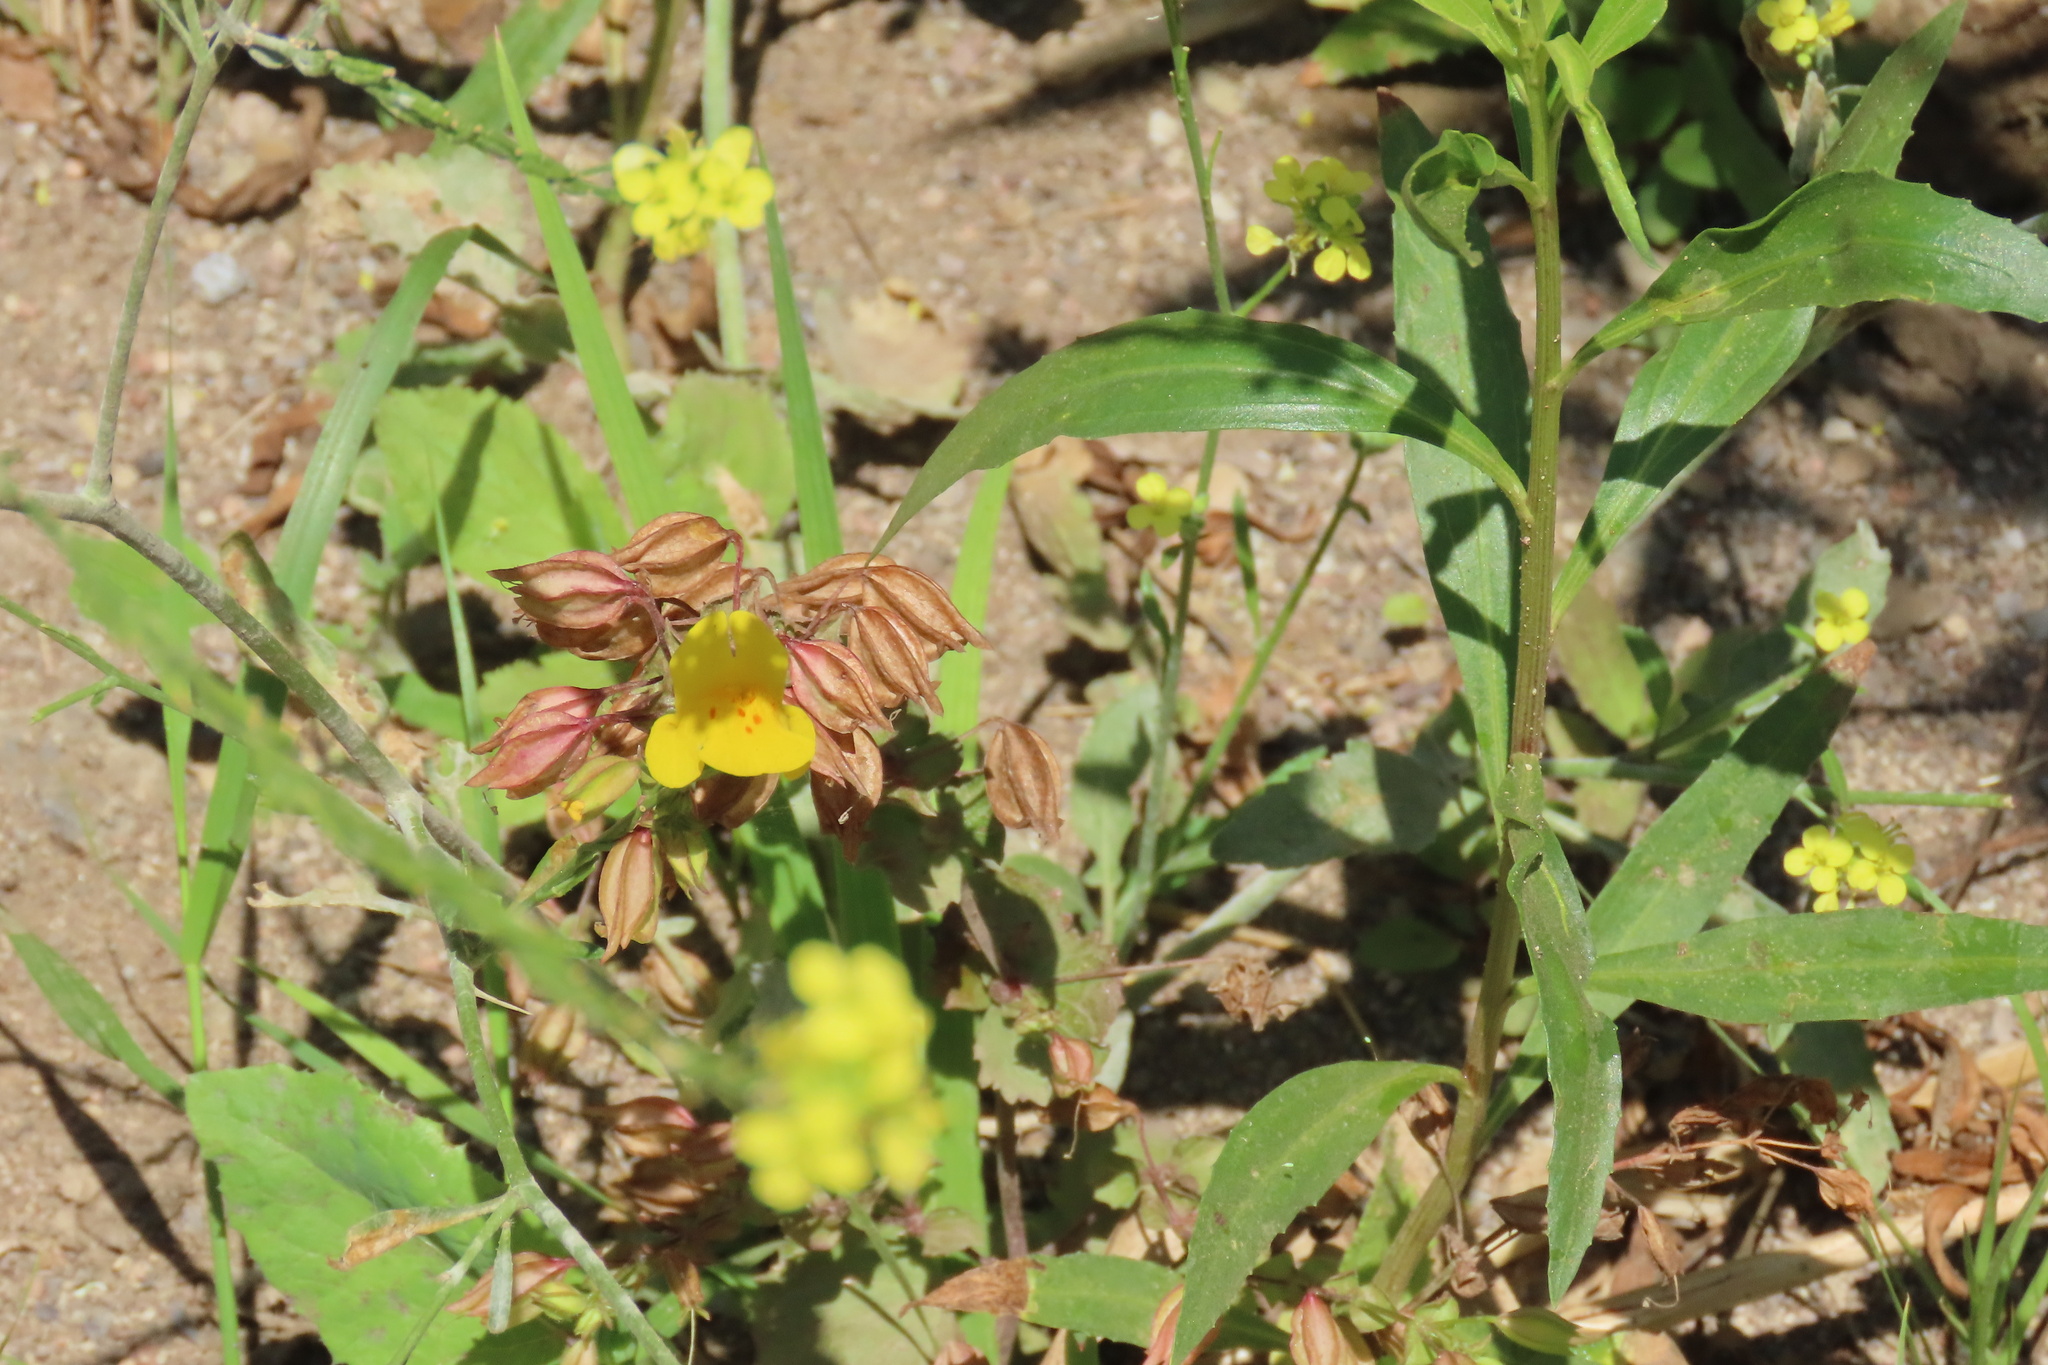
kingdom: Plantae
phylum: Tracheophyta
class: Magnoliopsida
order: Lamiales
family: Phrymaceae
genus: Erythranthe
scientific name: Erythranthe guttata
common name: Monkeyflower
